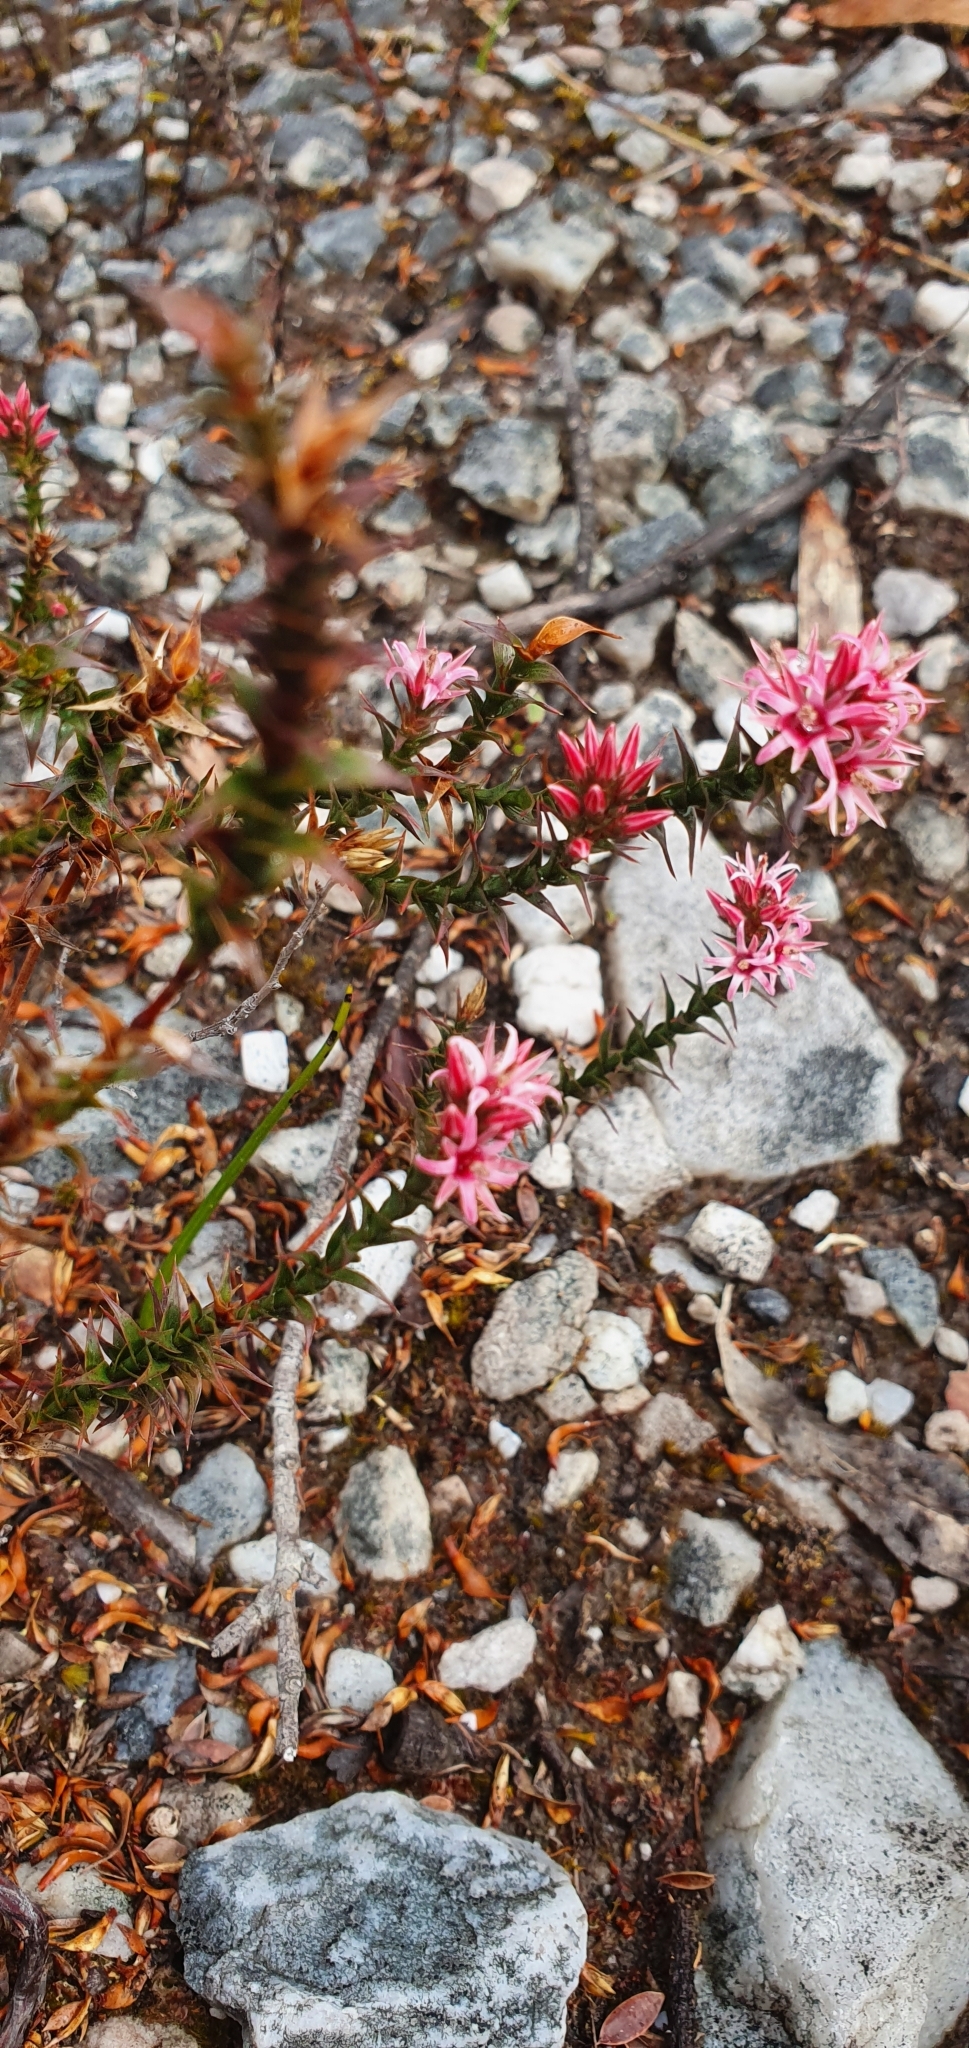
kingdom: Plantae
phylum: Tracheophyta
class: Magnoliopsida
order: Ericales
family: Ericaceae
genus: Sprengelia
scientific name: Sprengelia incarnata
